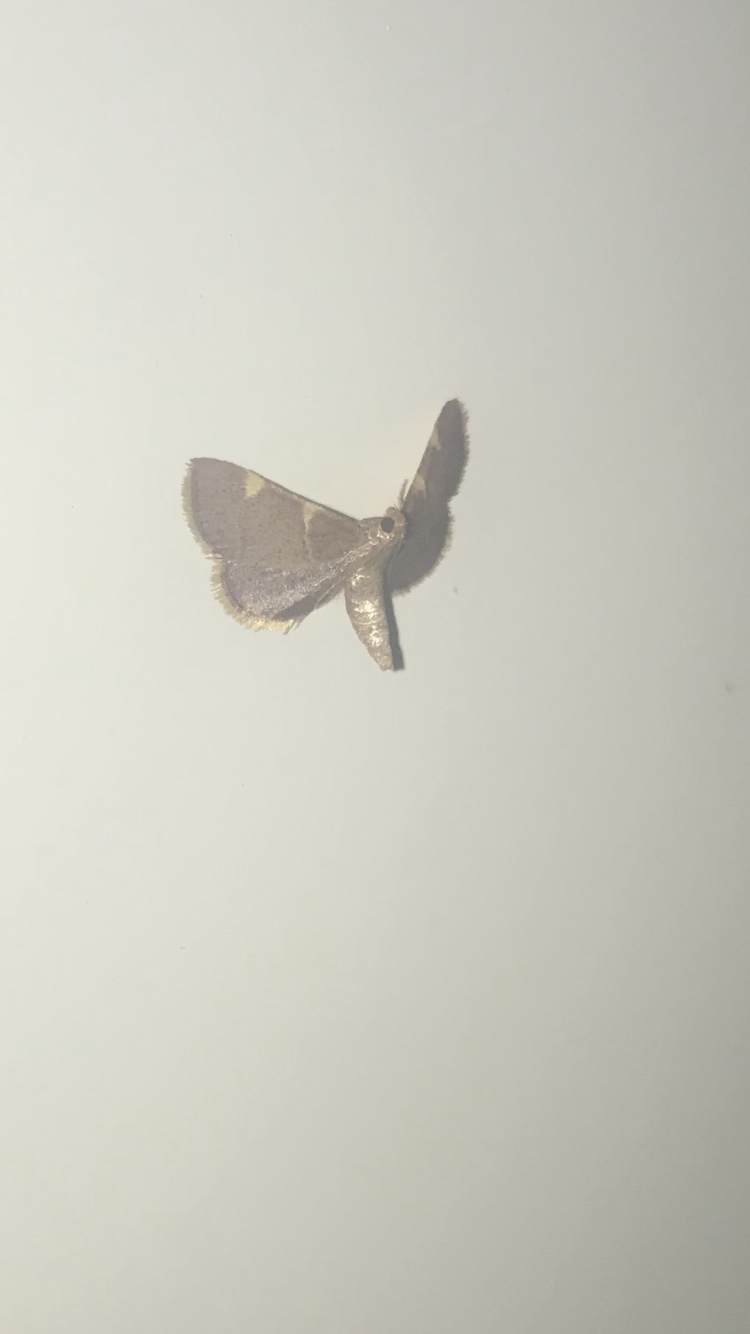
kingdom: Animalia
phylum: Arthropoda
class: Insecta
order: Lepidoptera
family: Pyralidae
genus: Hypsopygia
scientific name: Hypsopygia olinalis
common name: Yellow-fringed dolichomia moth
